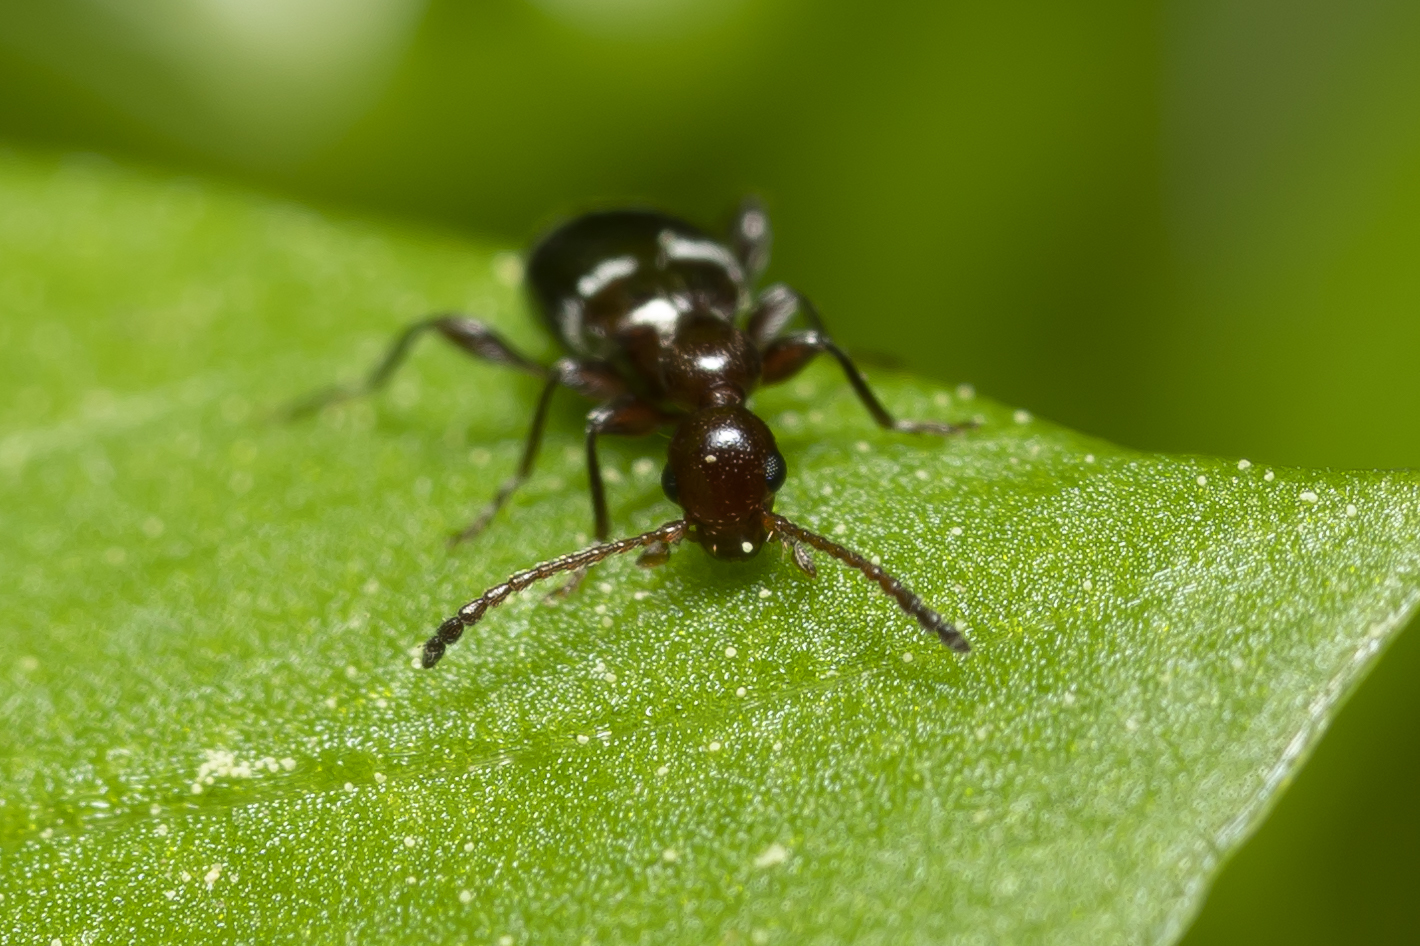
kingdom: Animalia
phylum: Arthropoda
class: Insecta
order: Coleoptera
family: Anthicidae
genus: Anthelephila
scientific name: Anthelephila ionica
